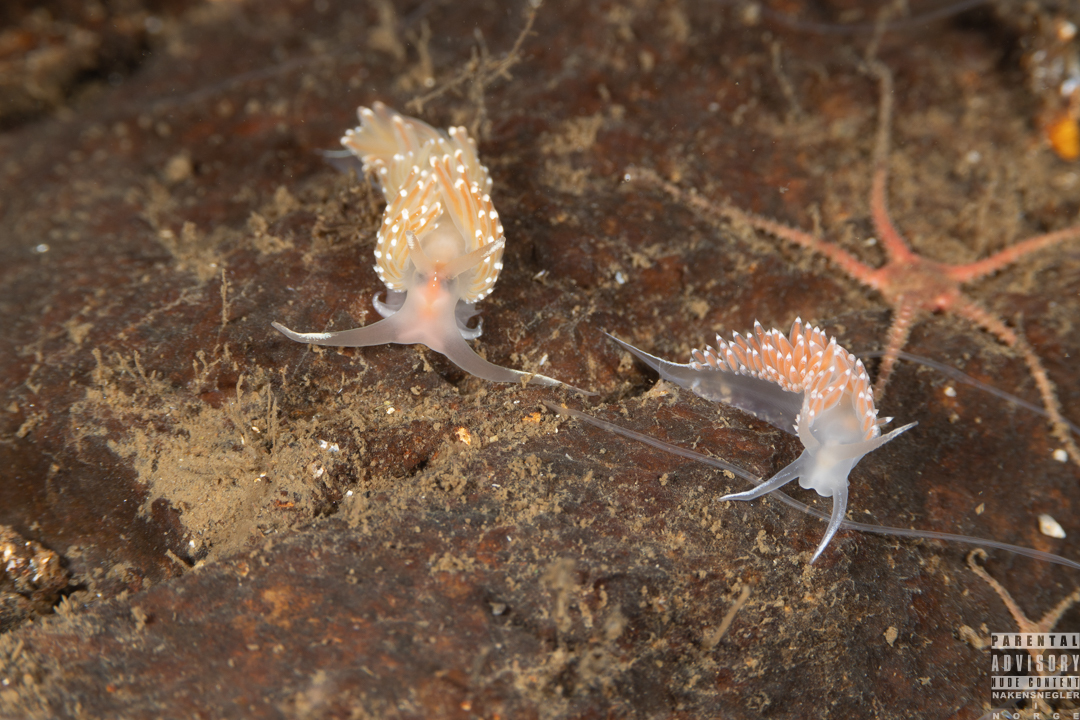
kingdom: Animalia
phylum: Mollusca
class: Gastropoda
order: Nudibranchia
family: Coryphellidae
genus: Coryphella
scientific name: Coryphella verrucosa
